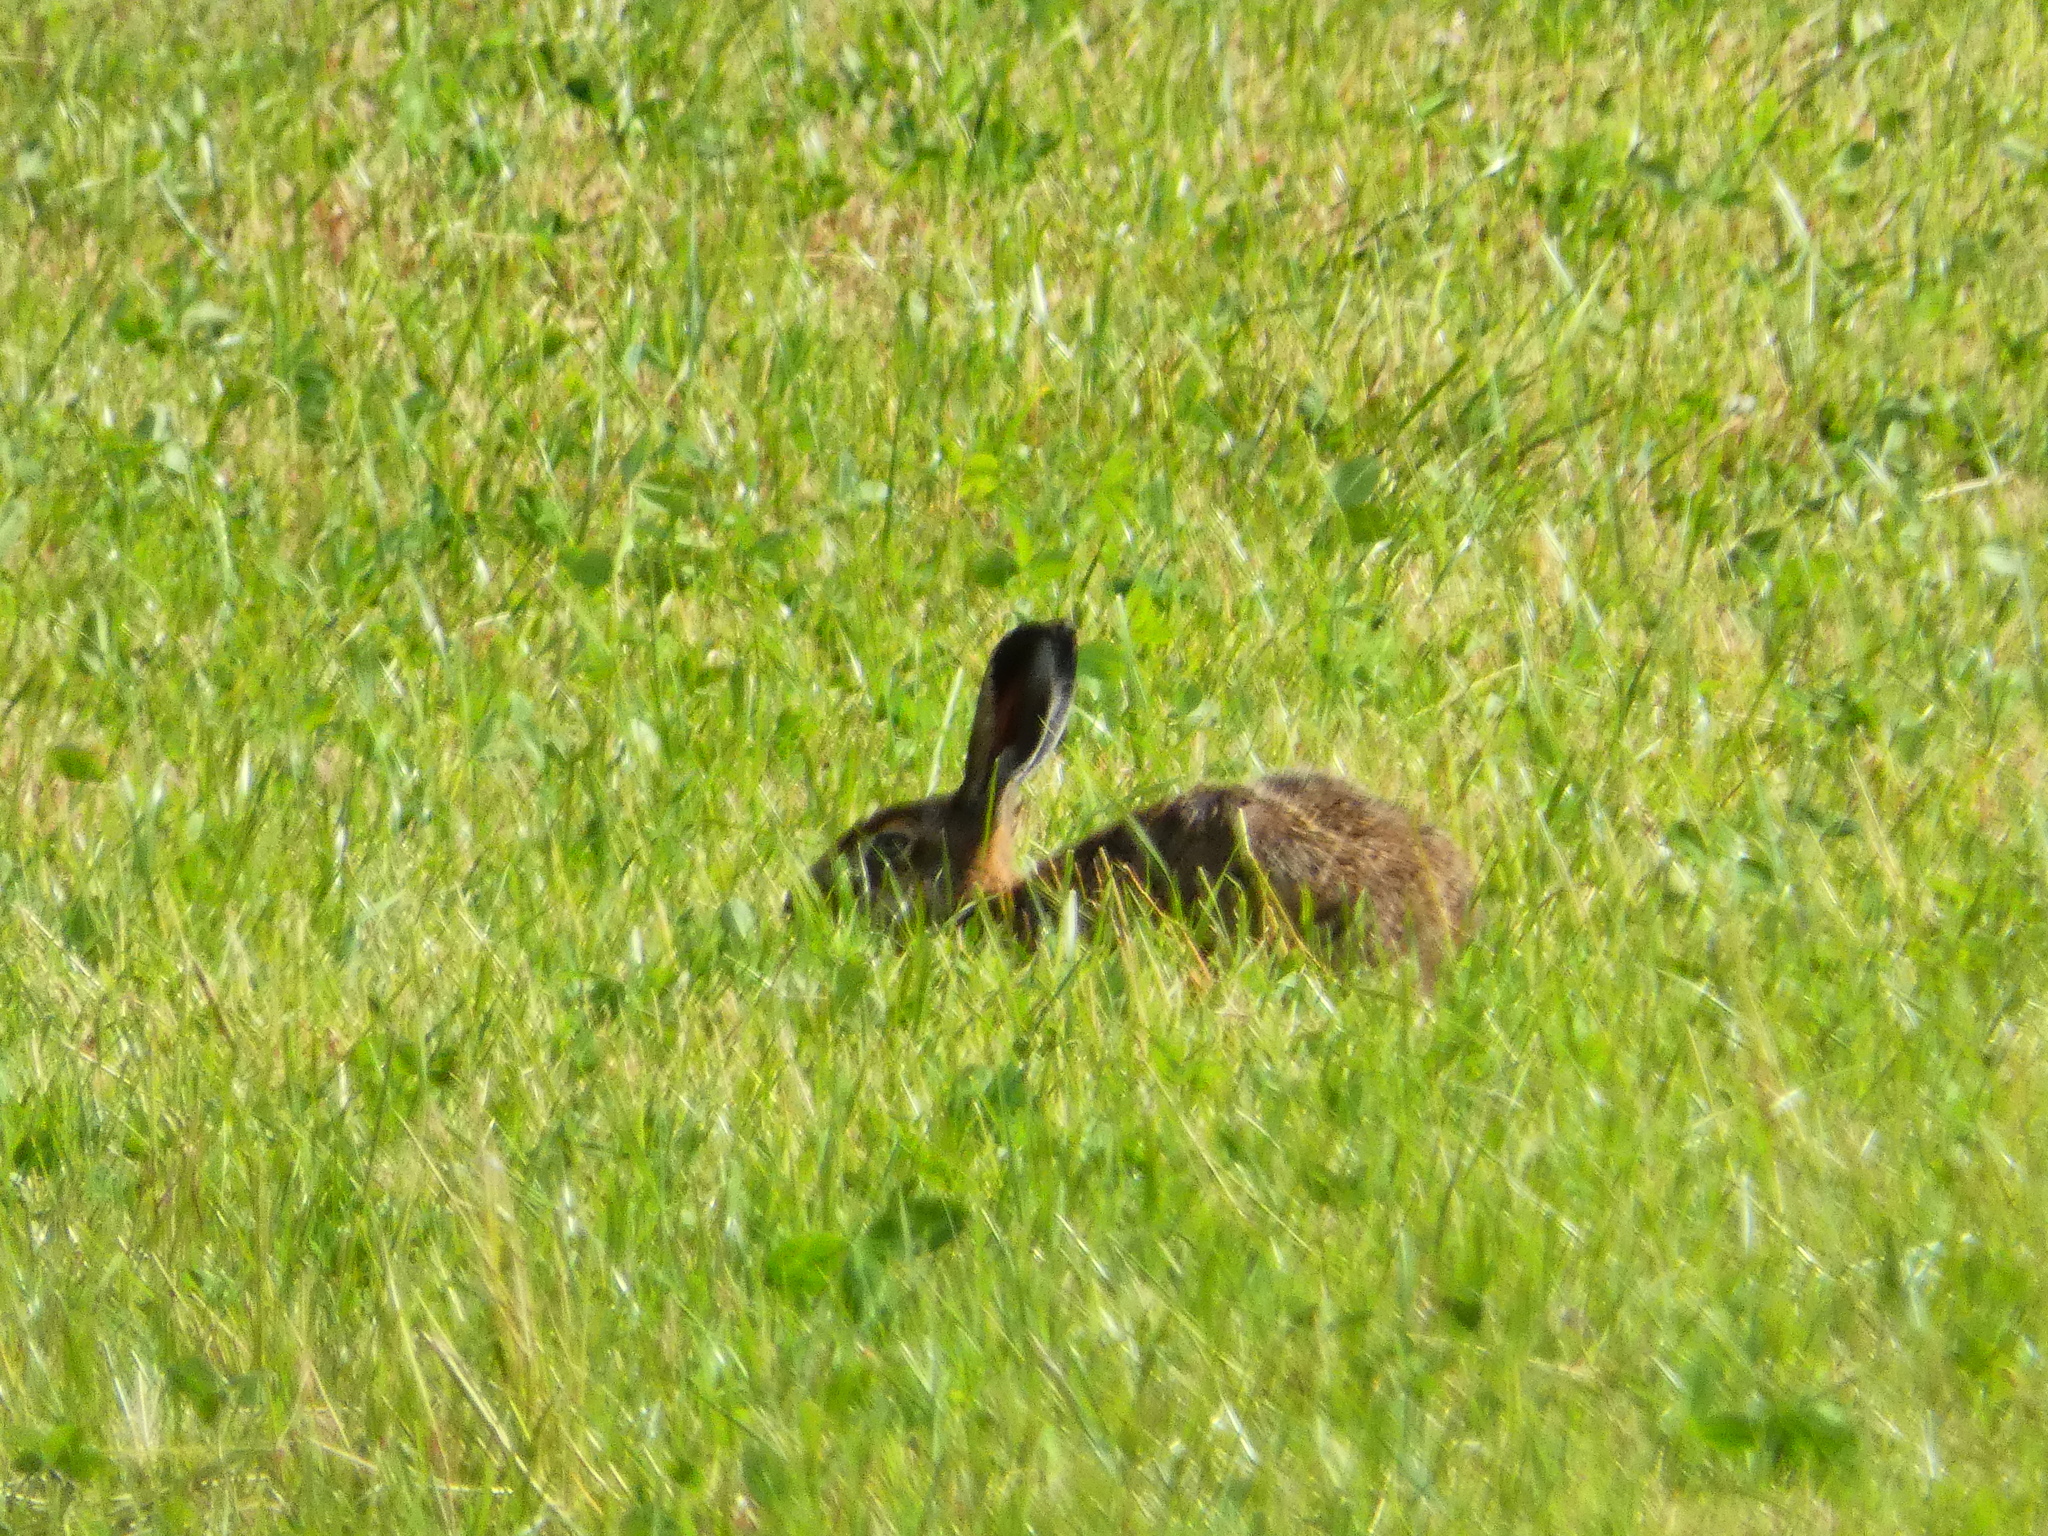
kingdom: Animalia
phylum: Chordata
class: Mammalia
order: Lagomorpha
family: Leporidae
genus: Lepus
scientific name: Lepus europaeus
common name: European hare
